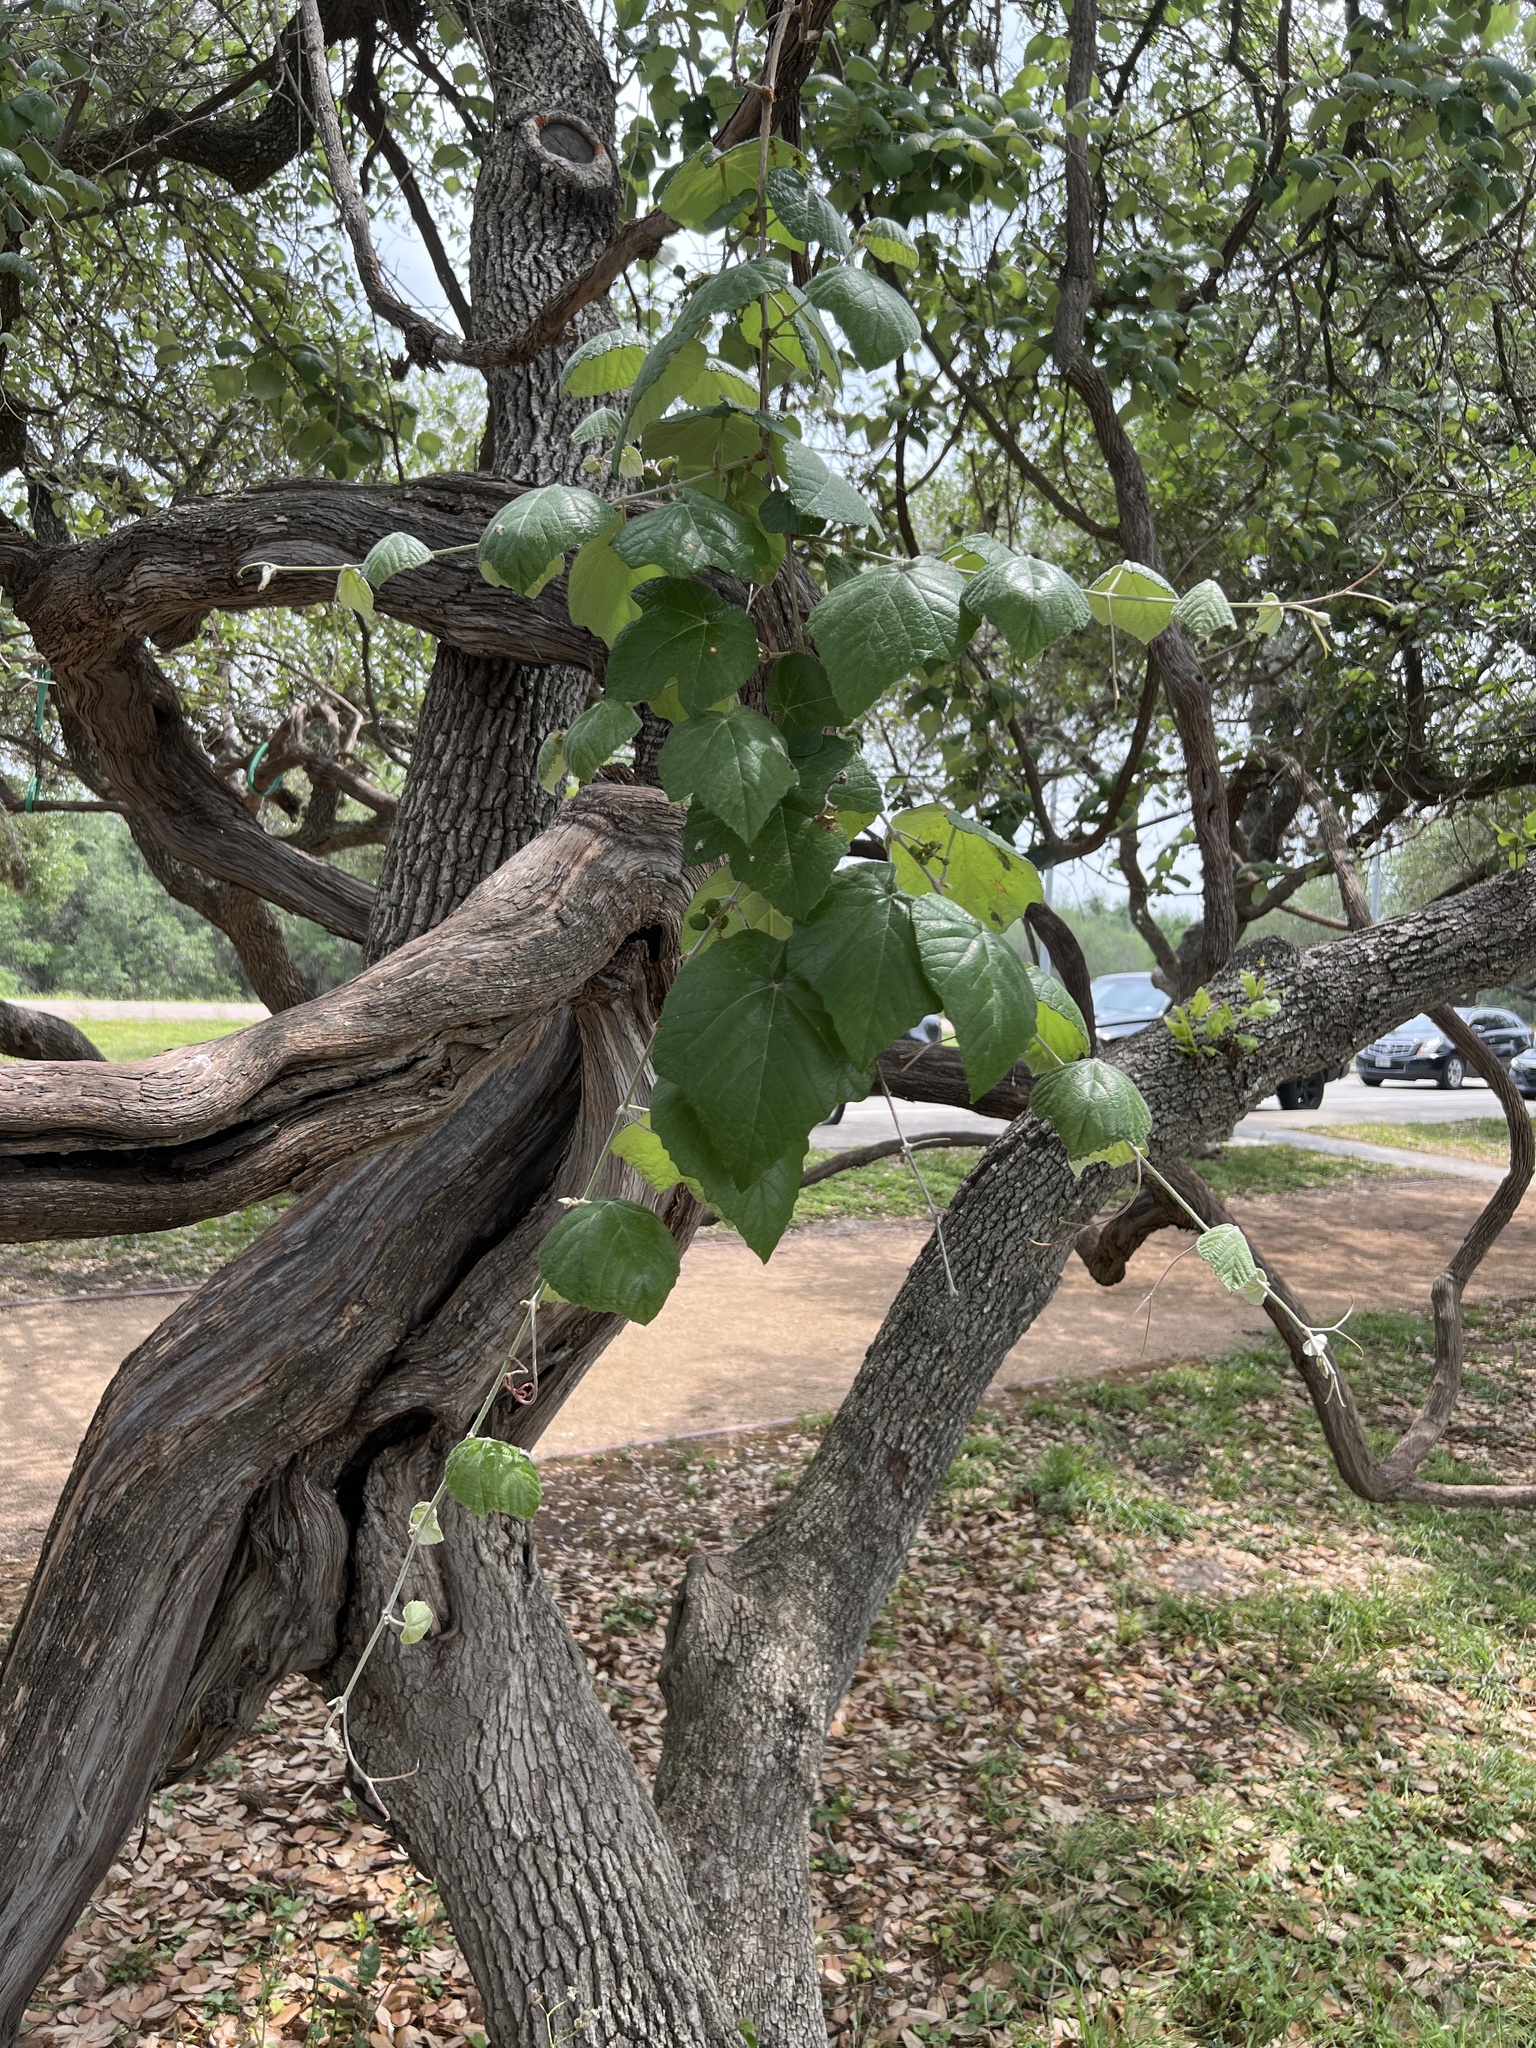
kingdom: Plantae
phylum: Tracheophyta
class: Magnoliopsida
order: Vitales
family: Vitaceae
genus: Vitis
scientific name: Vitis mustangensis
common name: Mustang grape
